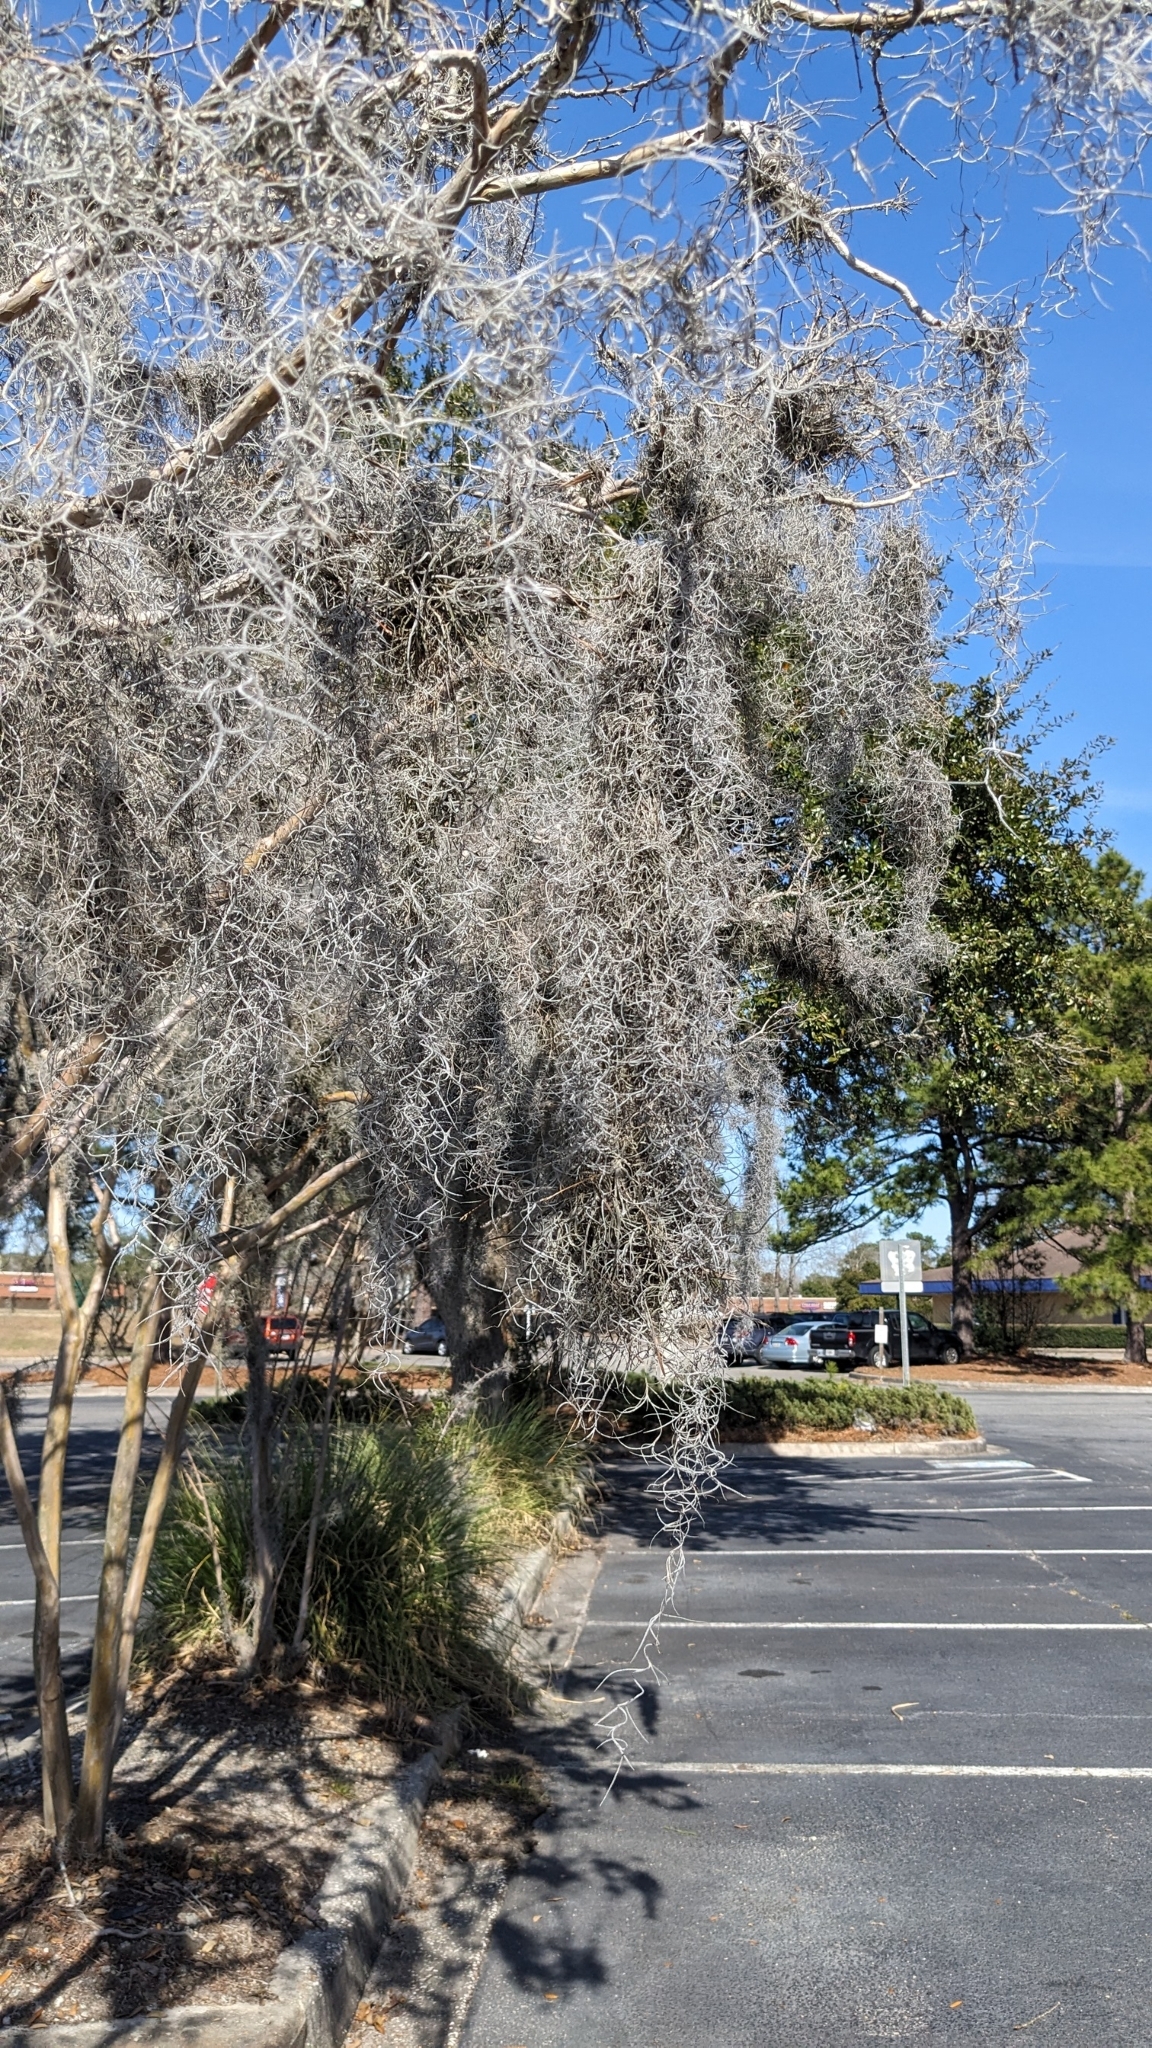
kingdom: Plantae
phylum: Tracheophyta
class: Liliopsida
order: Poales
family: Bromeliaceae
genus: Tillandsia
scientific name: Tillandsia usneoides
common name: Spanish moss
